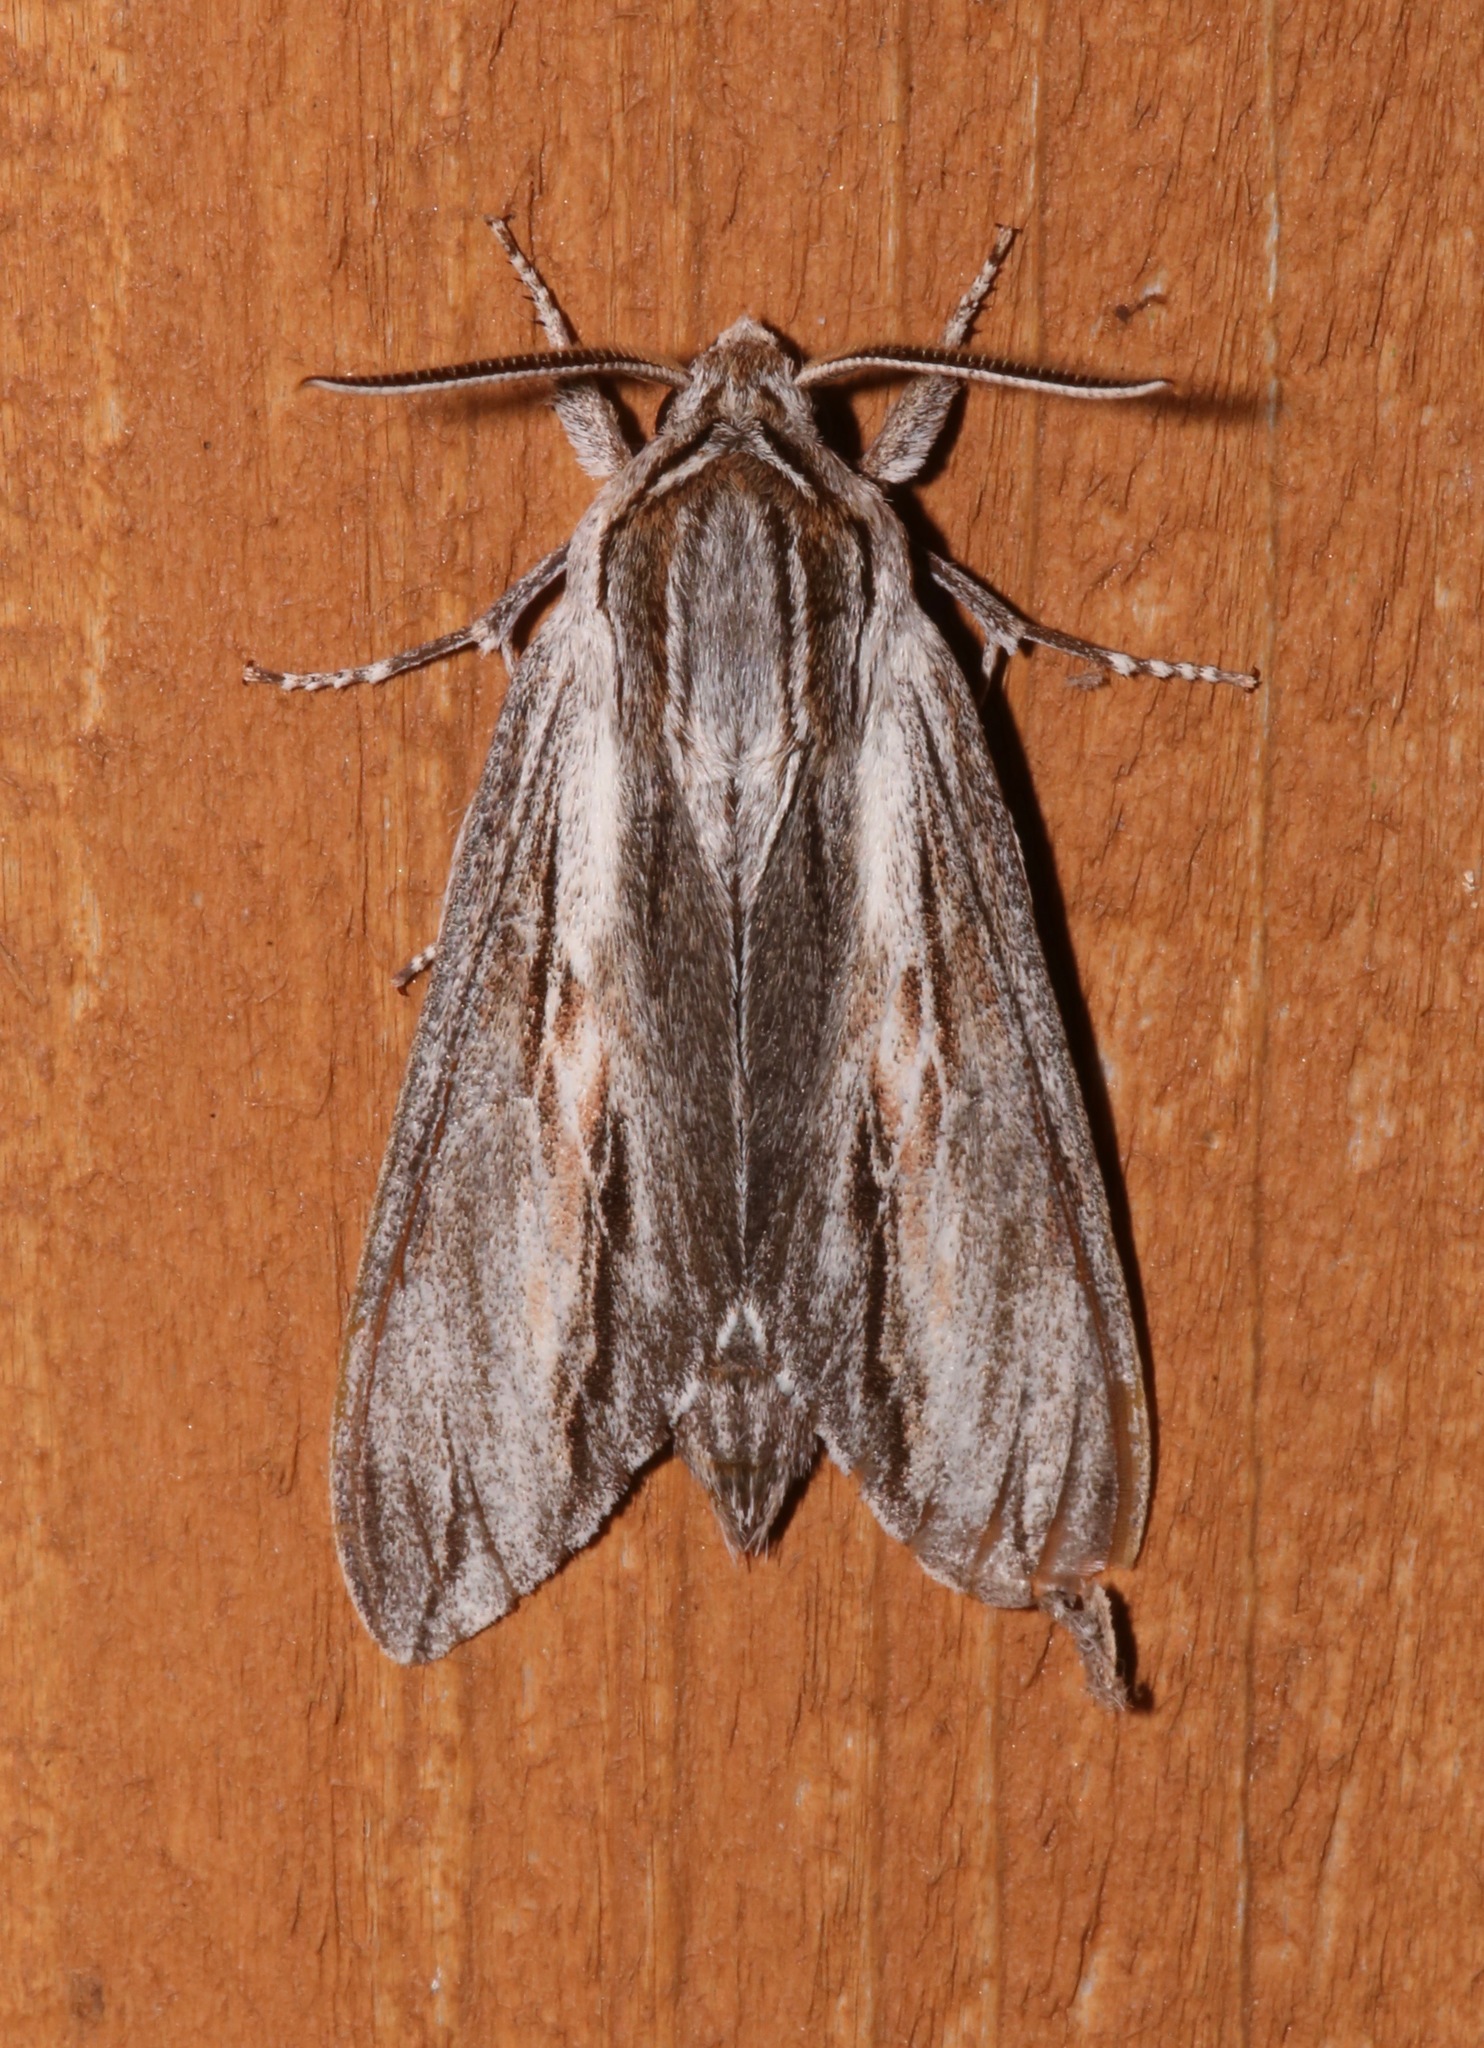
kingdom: Animalia
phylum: Arthropoda
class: Insecta
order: Lepidoptera
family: Sphingidae
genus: Isoparce
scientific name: Isoparce cupressi
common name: Cypress sphinx
